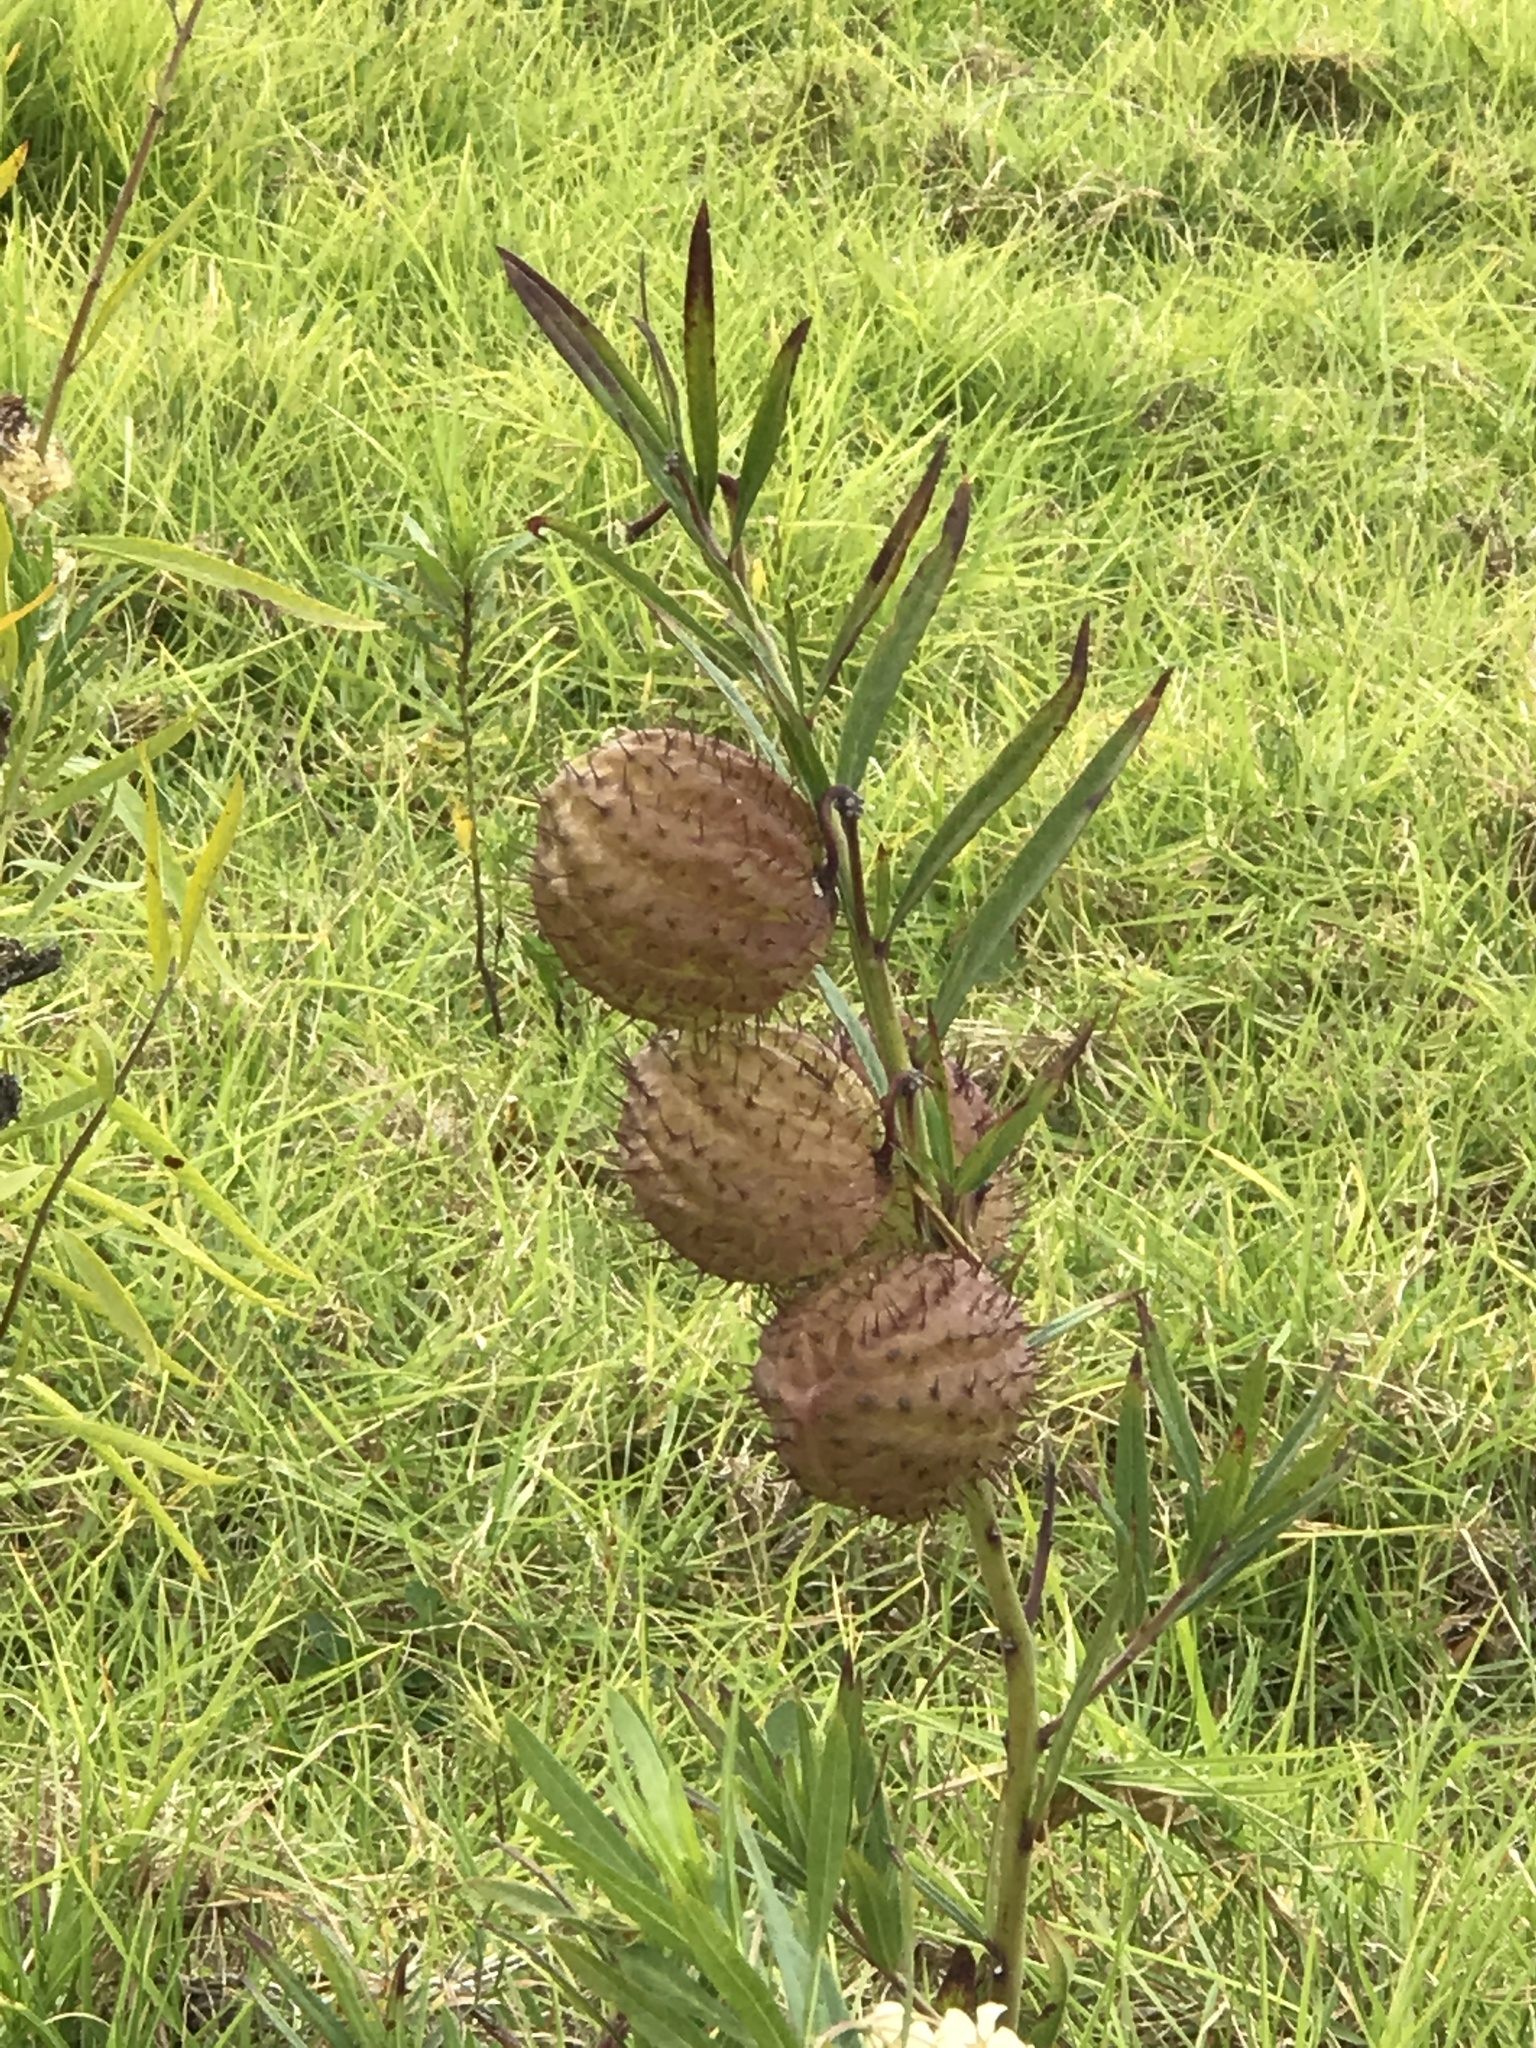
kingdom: Plantae
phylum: Tracheophyta
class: Magnoliopsida
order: Gentianales
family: Apocynaceae
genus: Gomphocarpus
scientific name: Gomphocarpus physocarpus
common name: Balloon cotton bush
